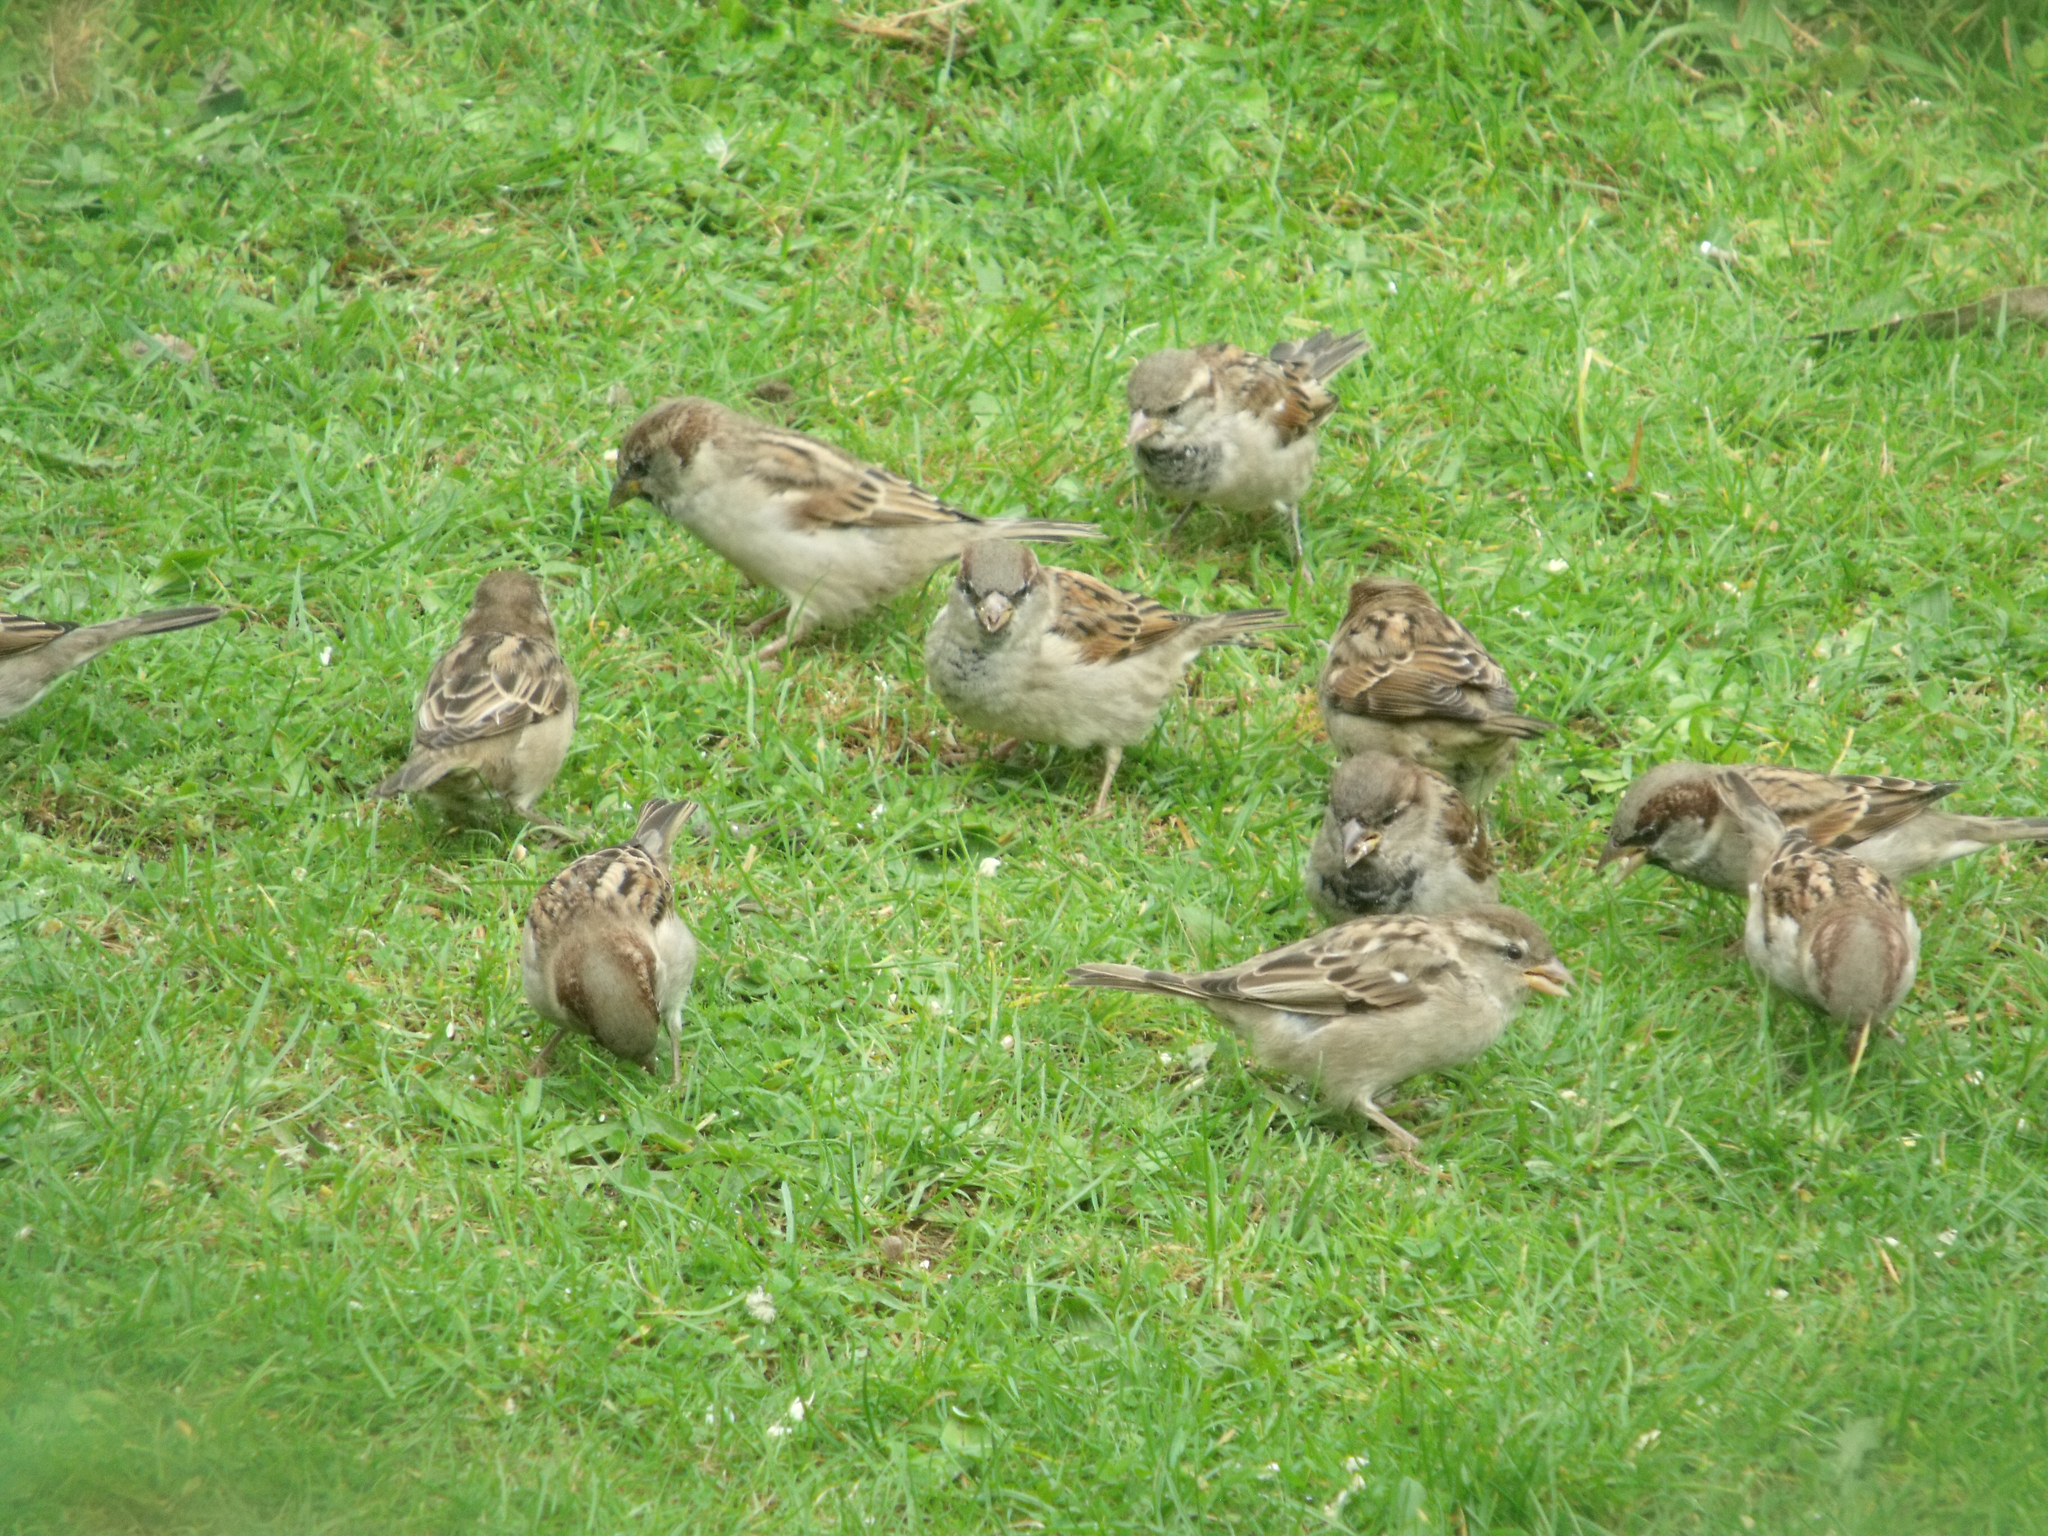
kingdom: Animalia
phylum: Chordata
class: Aves
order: Passeriformes
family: Passeridae
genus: Passer
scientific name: Passer domesticus
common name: House sparrow
